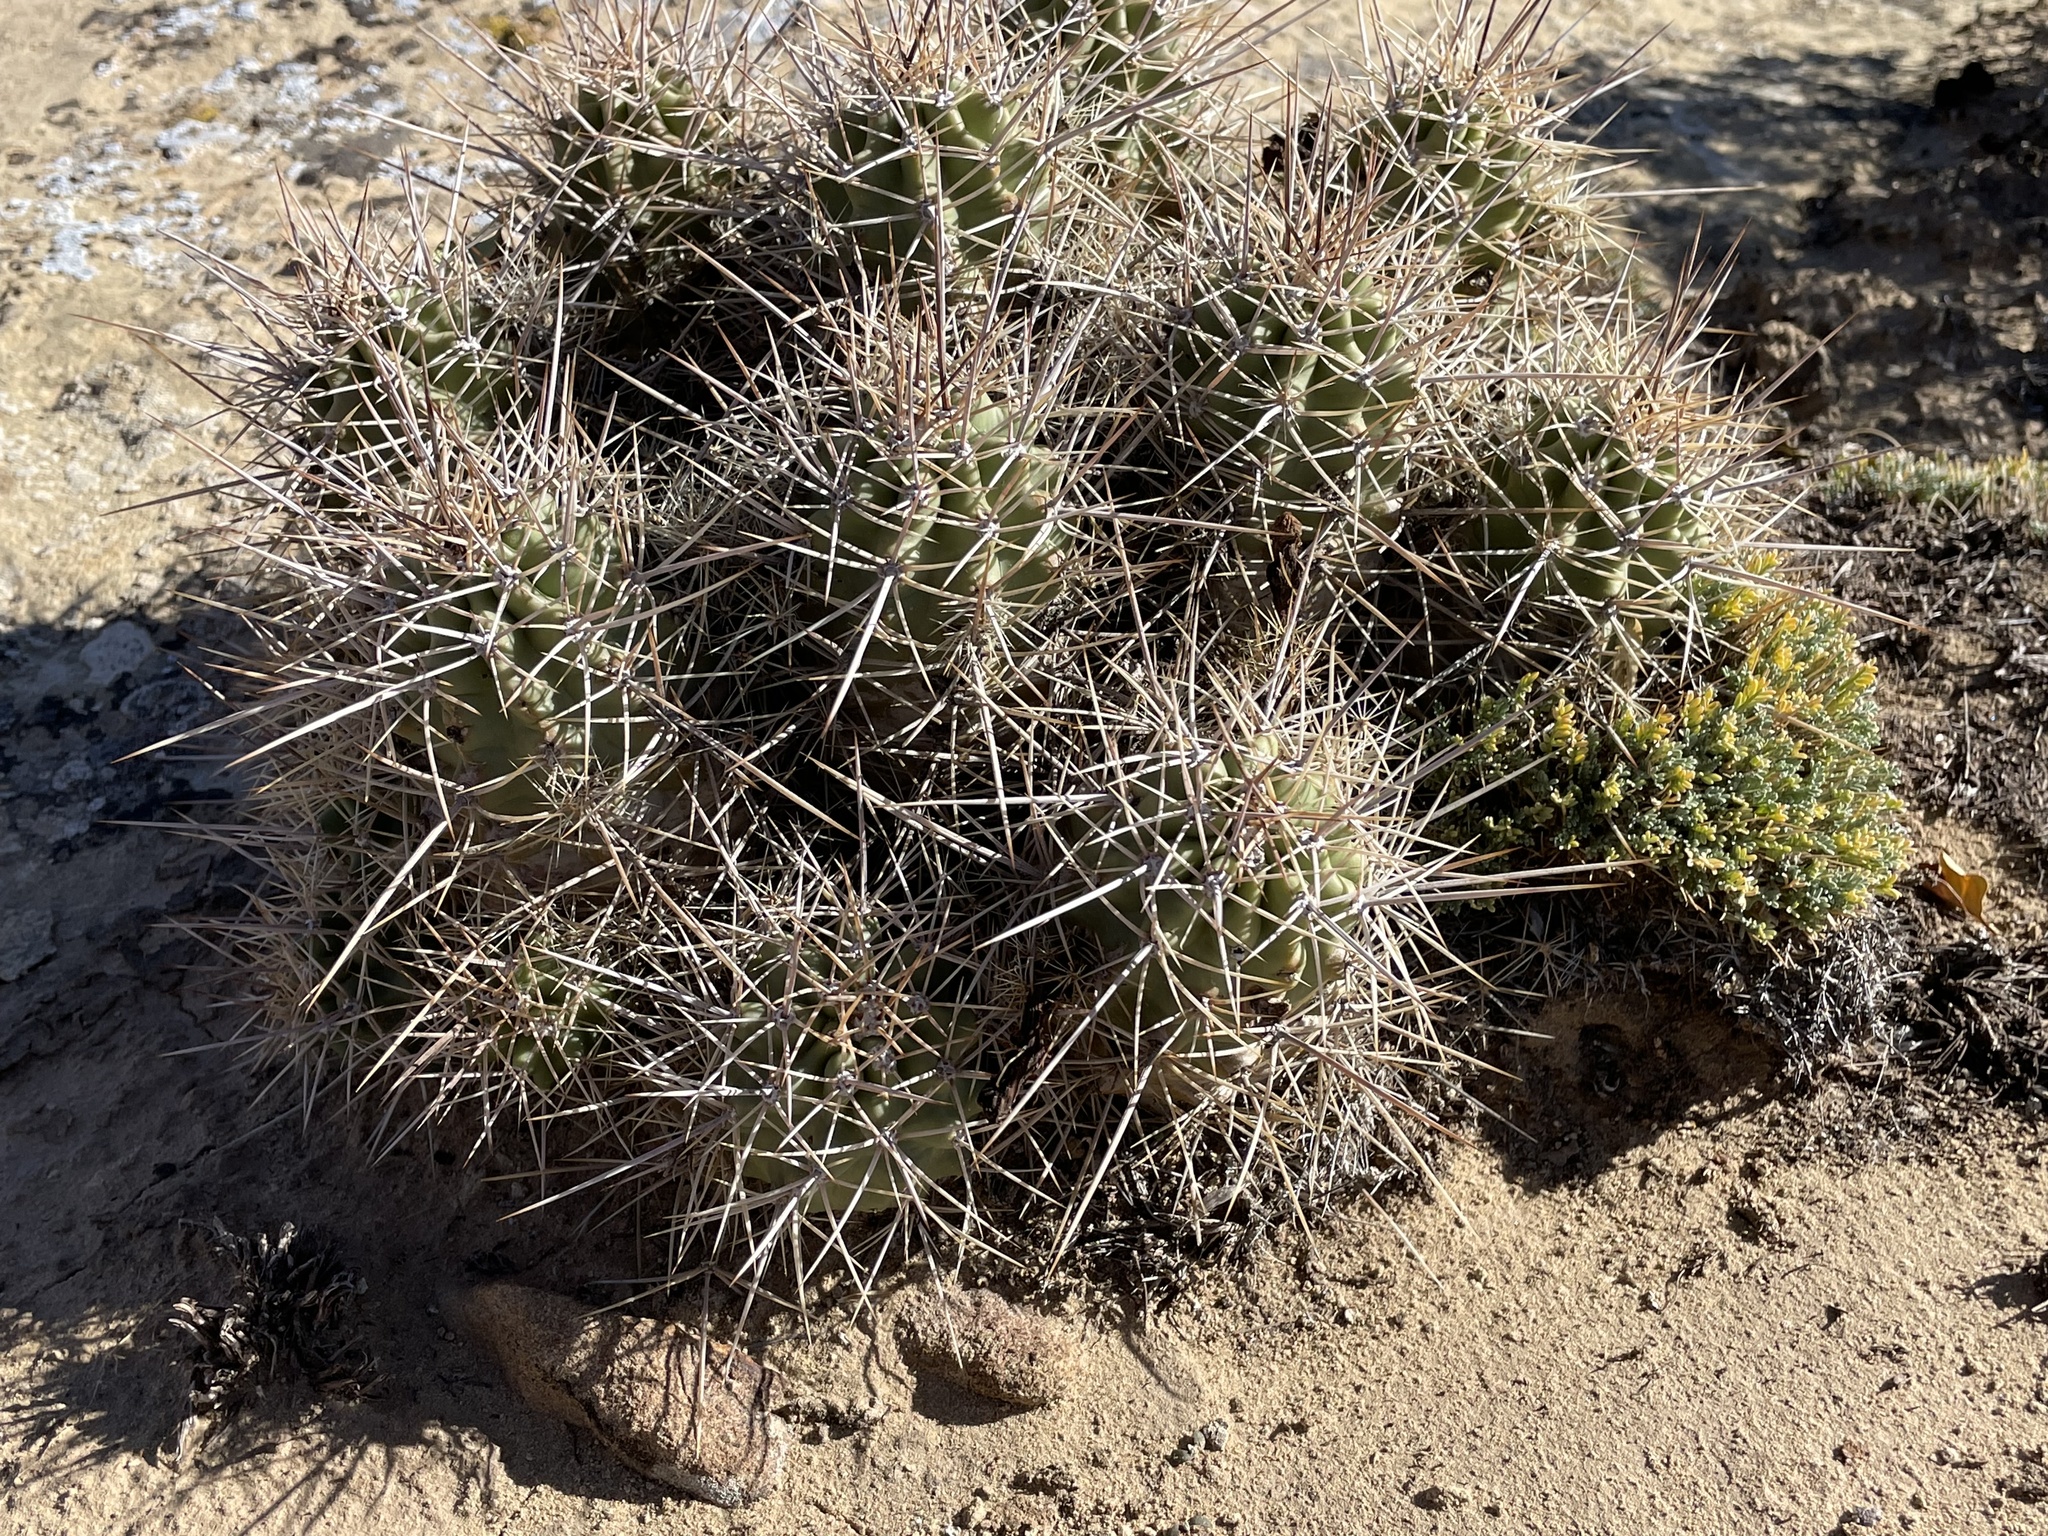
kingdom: Plantae
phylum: Tracheophyta
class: Magnoliopsida
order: Caryophyllales
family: Cactaceae
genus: Echinocereus
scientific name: Echinocereus triglochidiatus
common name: Claretcup hedgehog
